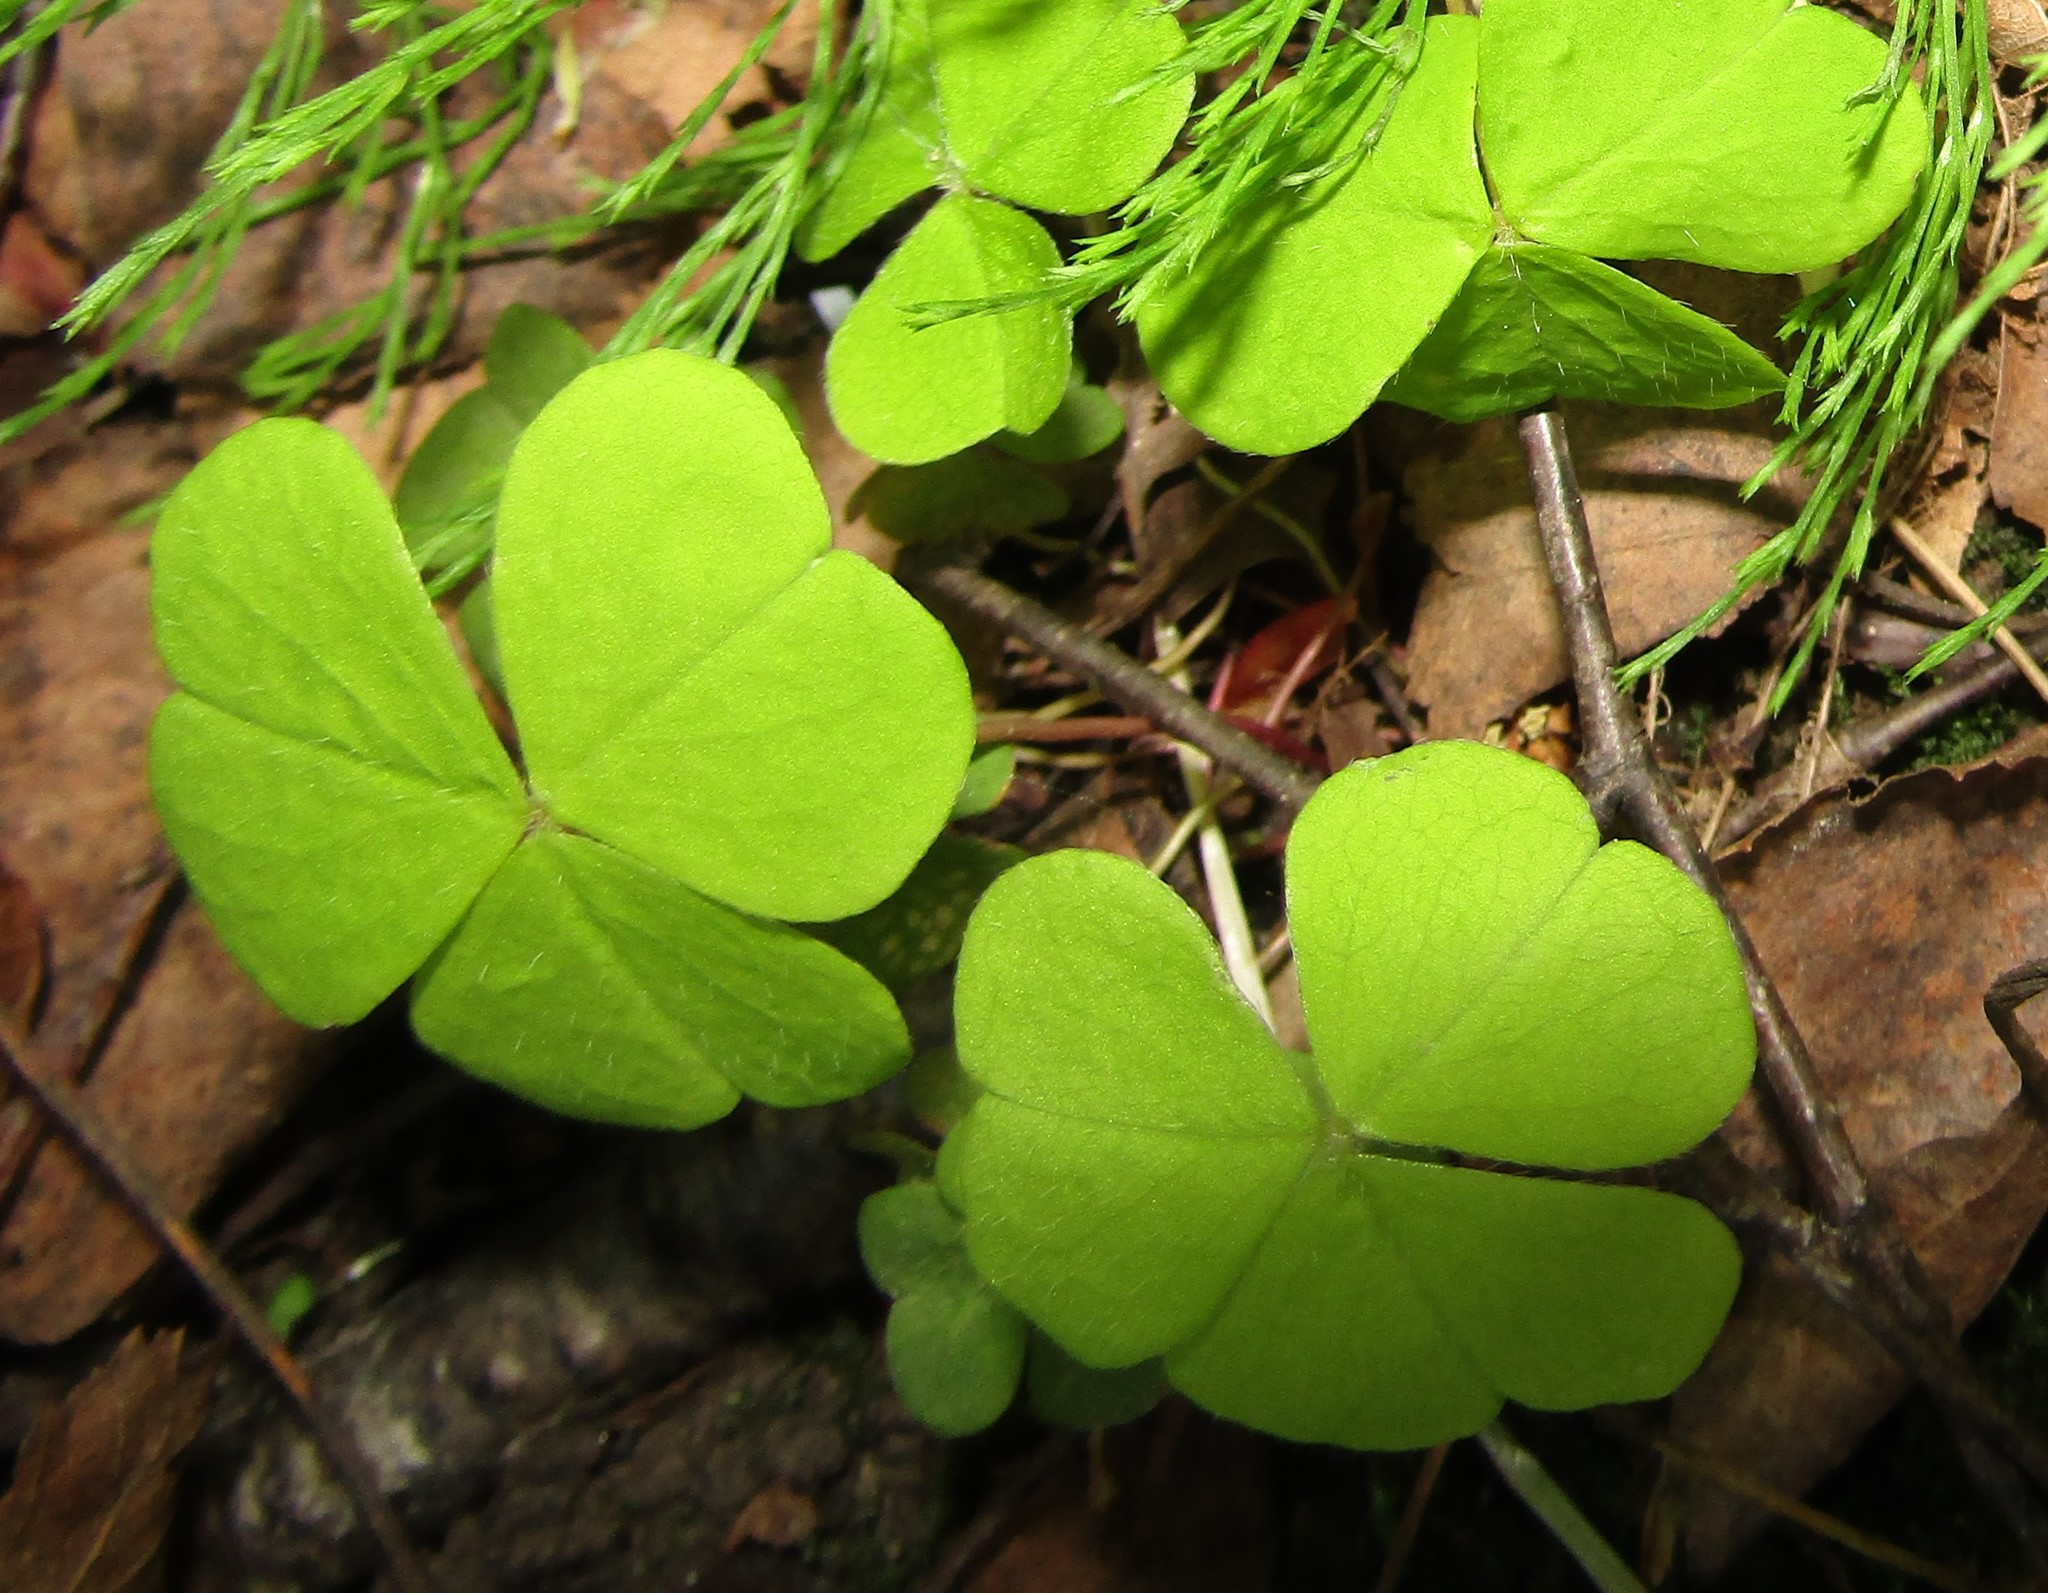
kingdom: Plantae
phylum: Tracheophyta
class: Magnoliopsida
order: Oxalidales
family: Oxalidaceae
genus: Oxalis
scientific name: Oxalis acetosella
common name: Wood-sorrel
